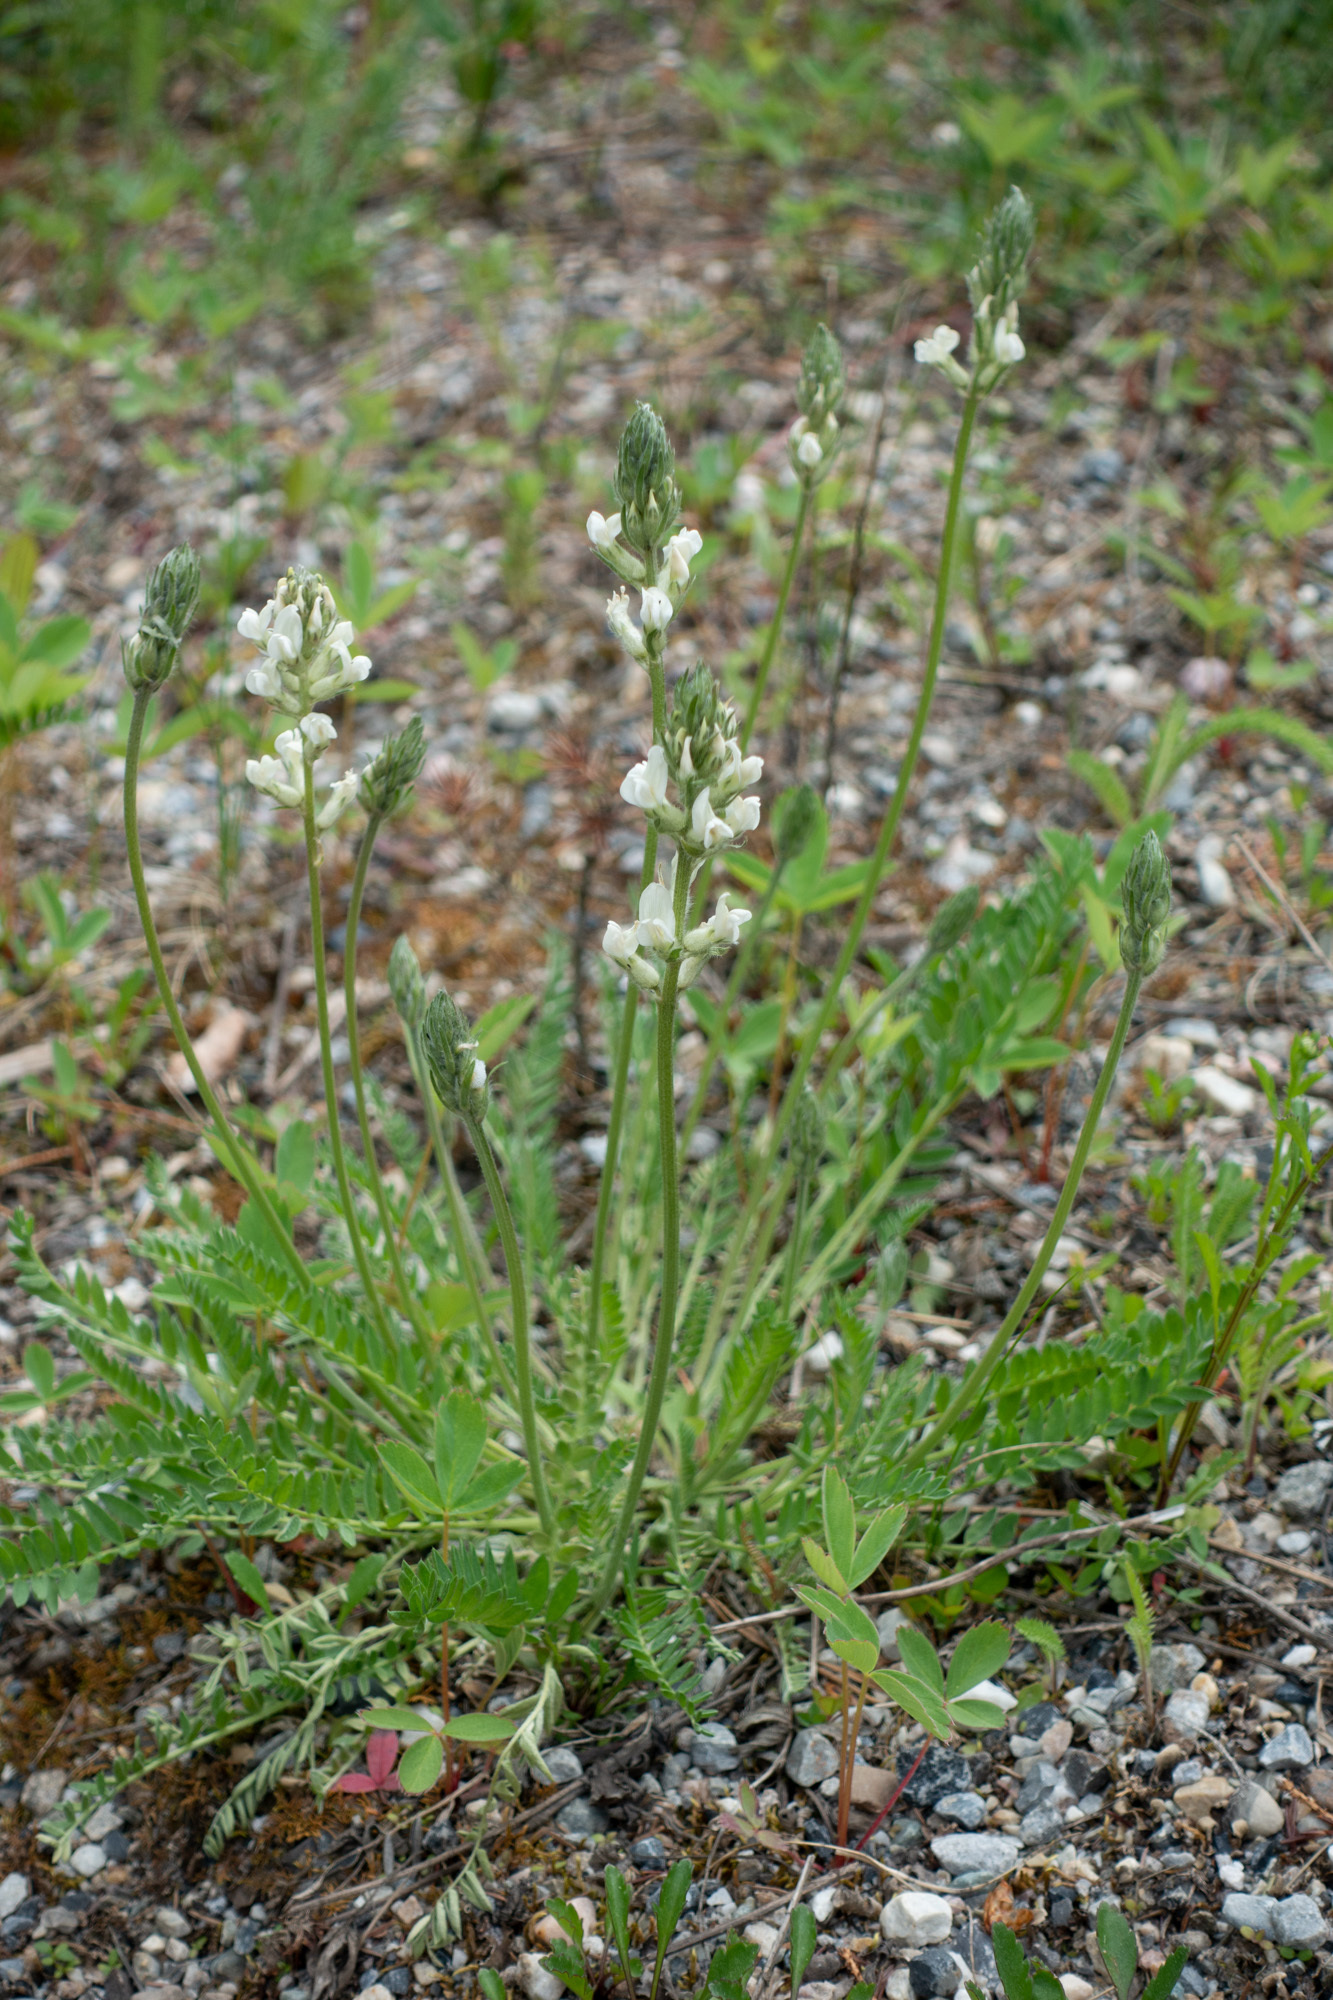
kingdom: Plantae
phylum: Tracheophyta
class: Magnoliopsida
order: Fabales
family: Fabaceae
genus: Oxytropis
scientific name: Oxytropis campestris
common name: Field locoweed
